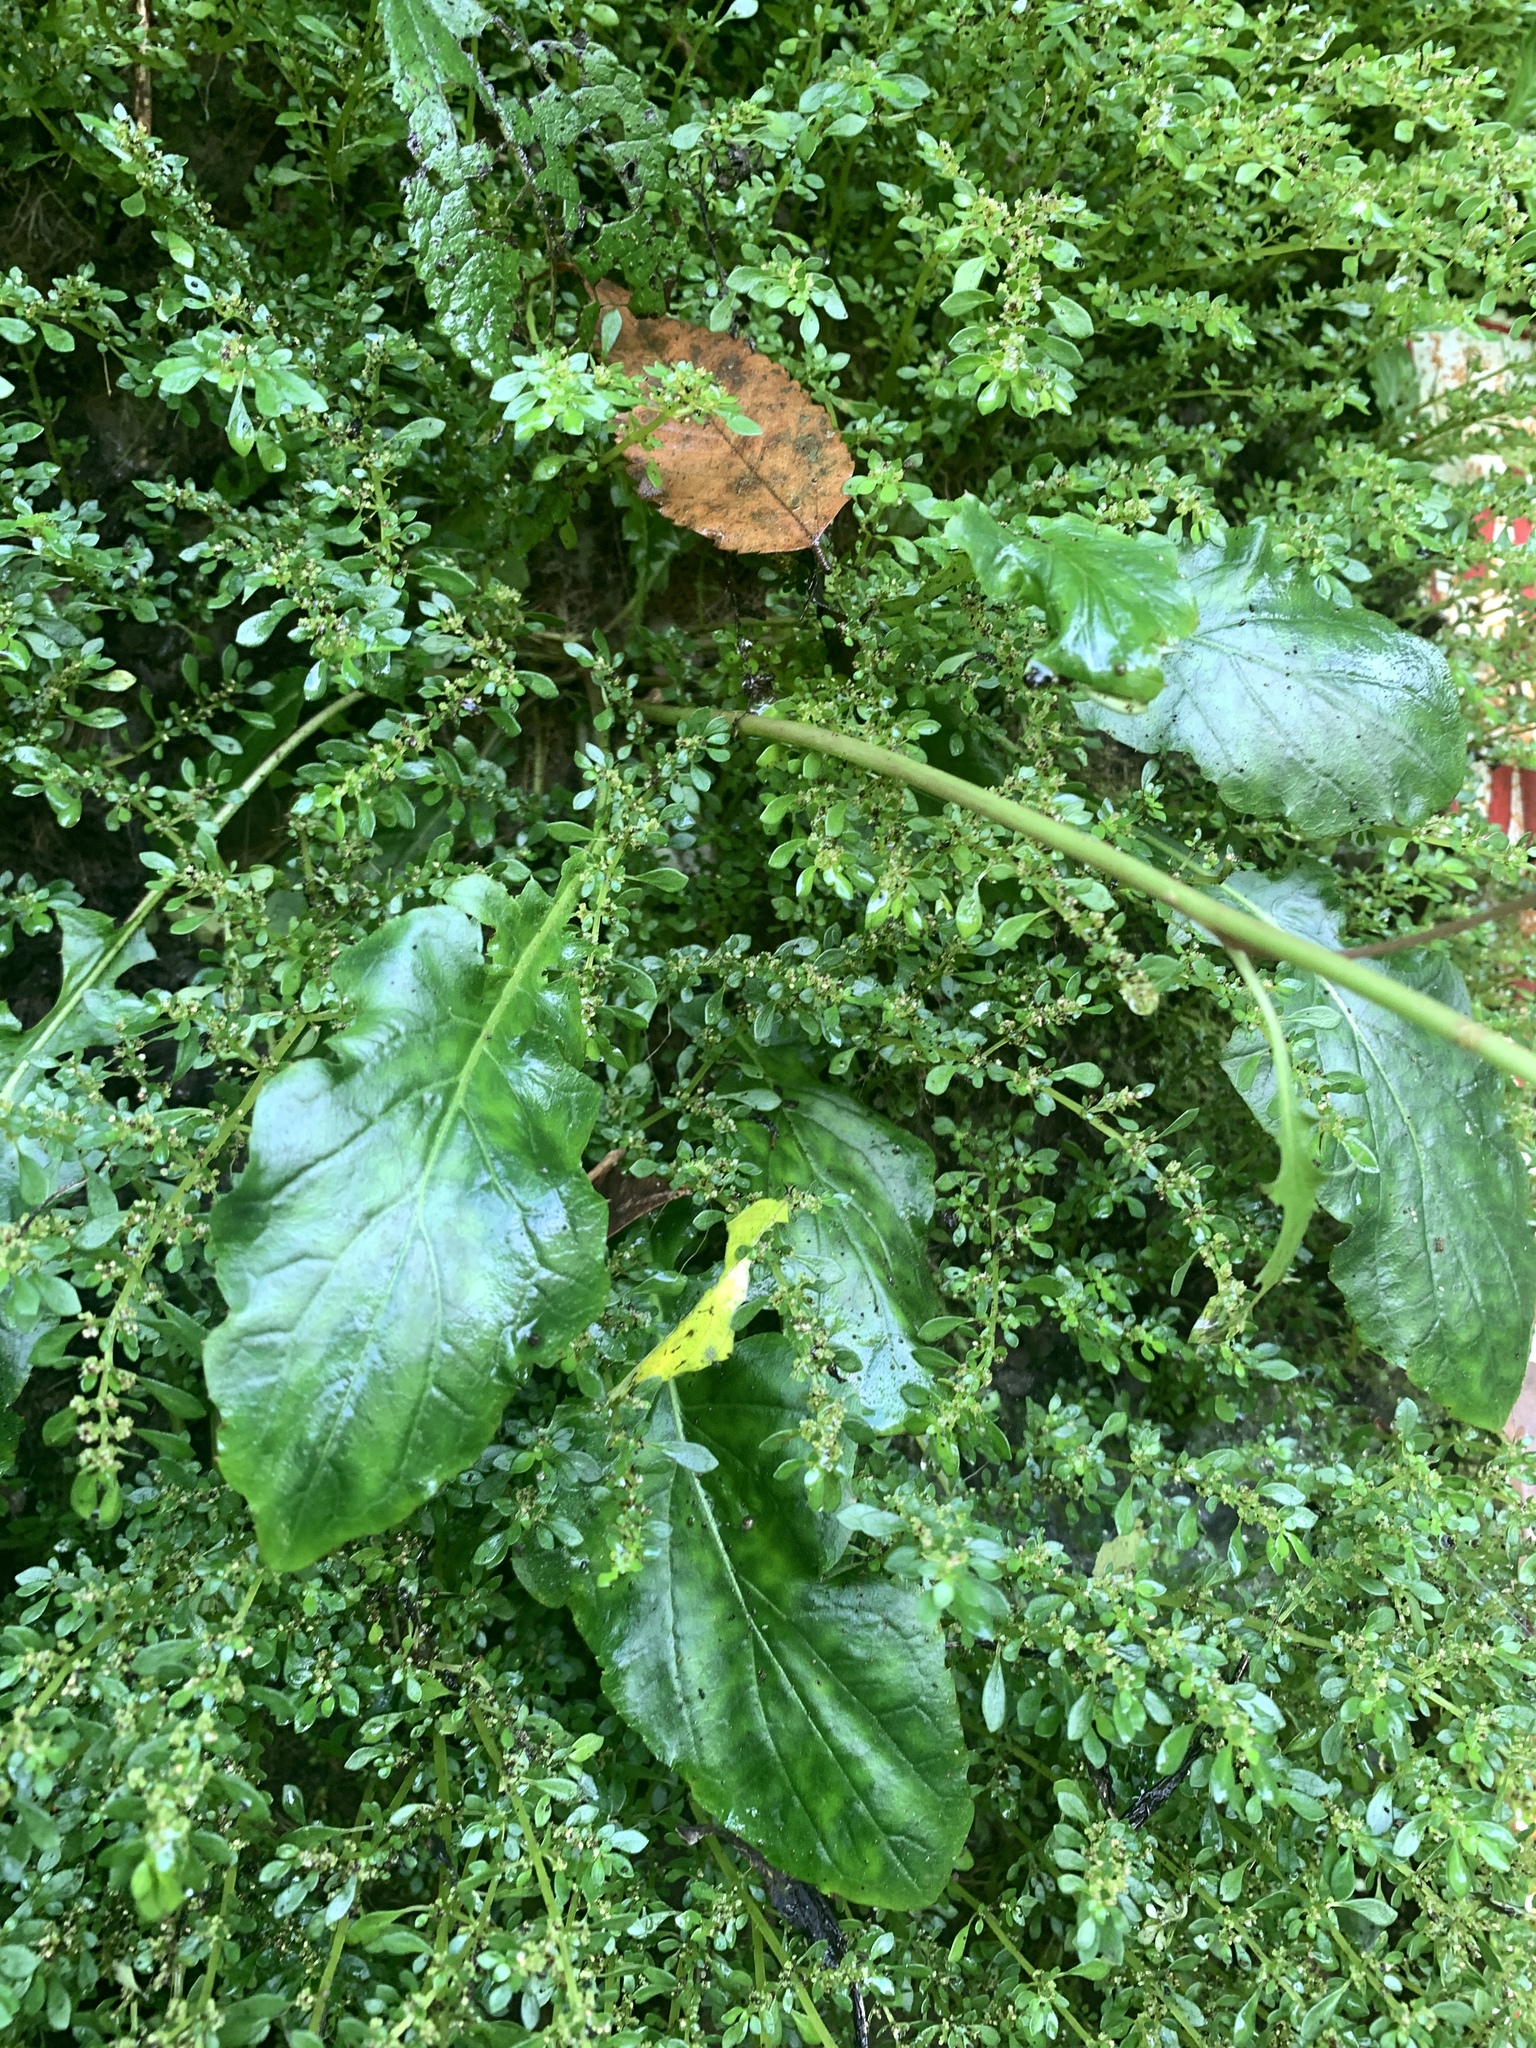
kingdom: Plantae
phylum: Tracheophyta
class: Magnoliopsida
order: Asterales
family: Asteraceae
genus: Youngia
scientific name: Youngia japonica
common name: Oriental false hawksbeard
